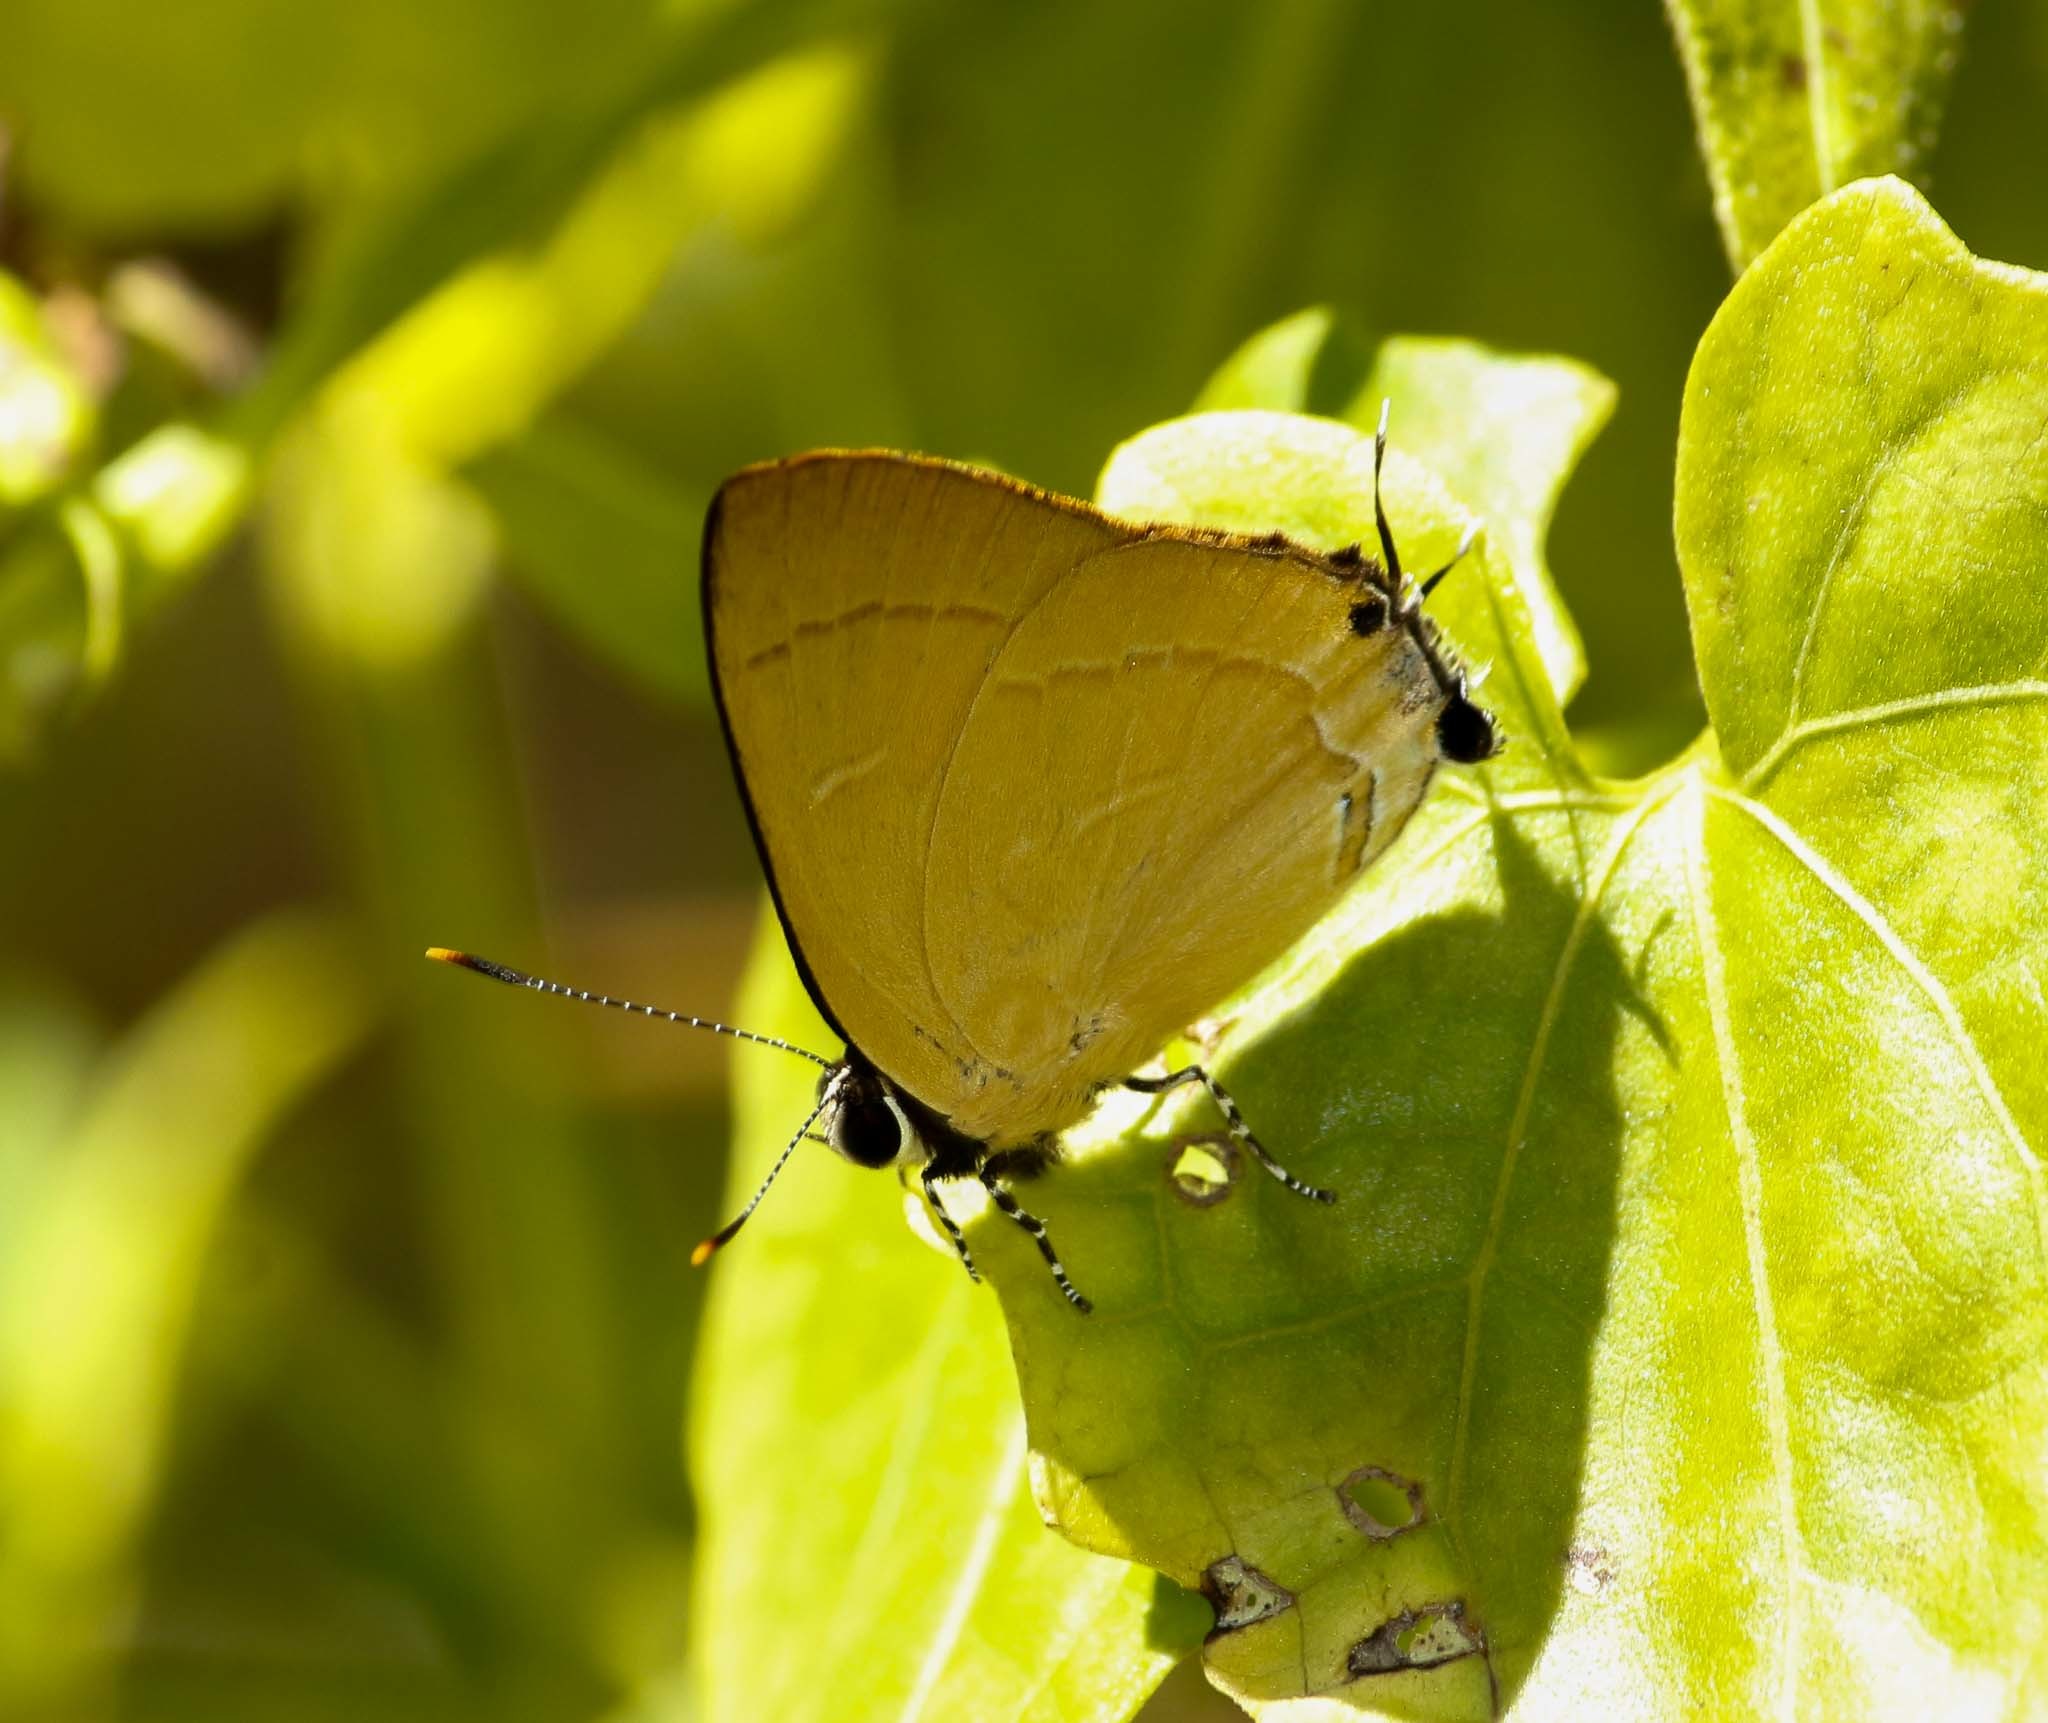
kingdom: Animalia
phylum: Arthropoda
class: Insecta
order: Lepidoptera
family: Lycaenidae
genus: Rapala
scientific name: Rapala dieneces
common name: Scarlet flash
